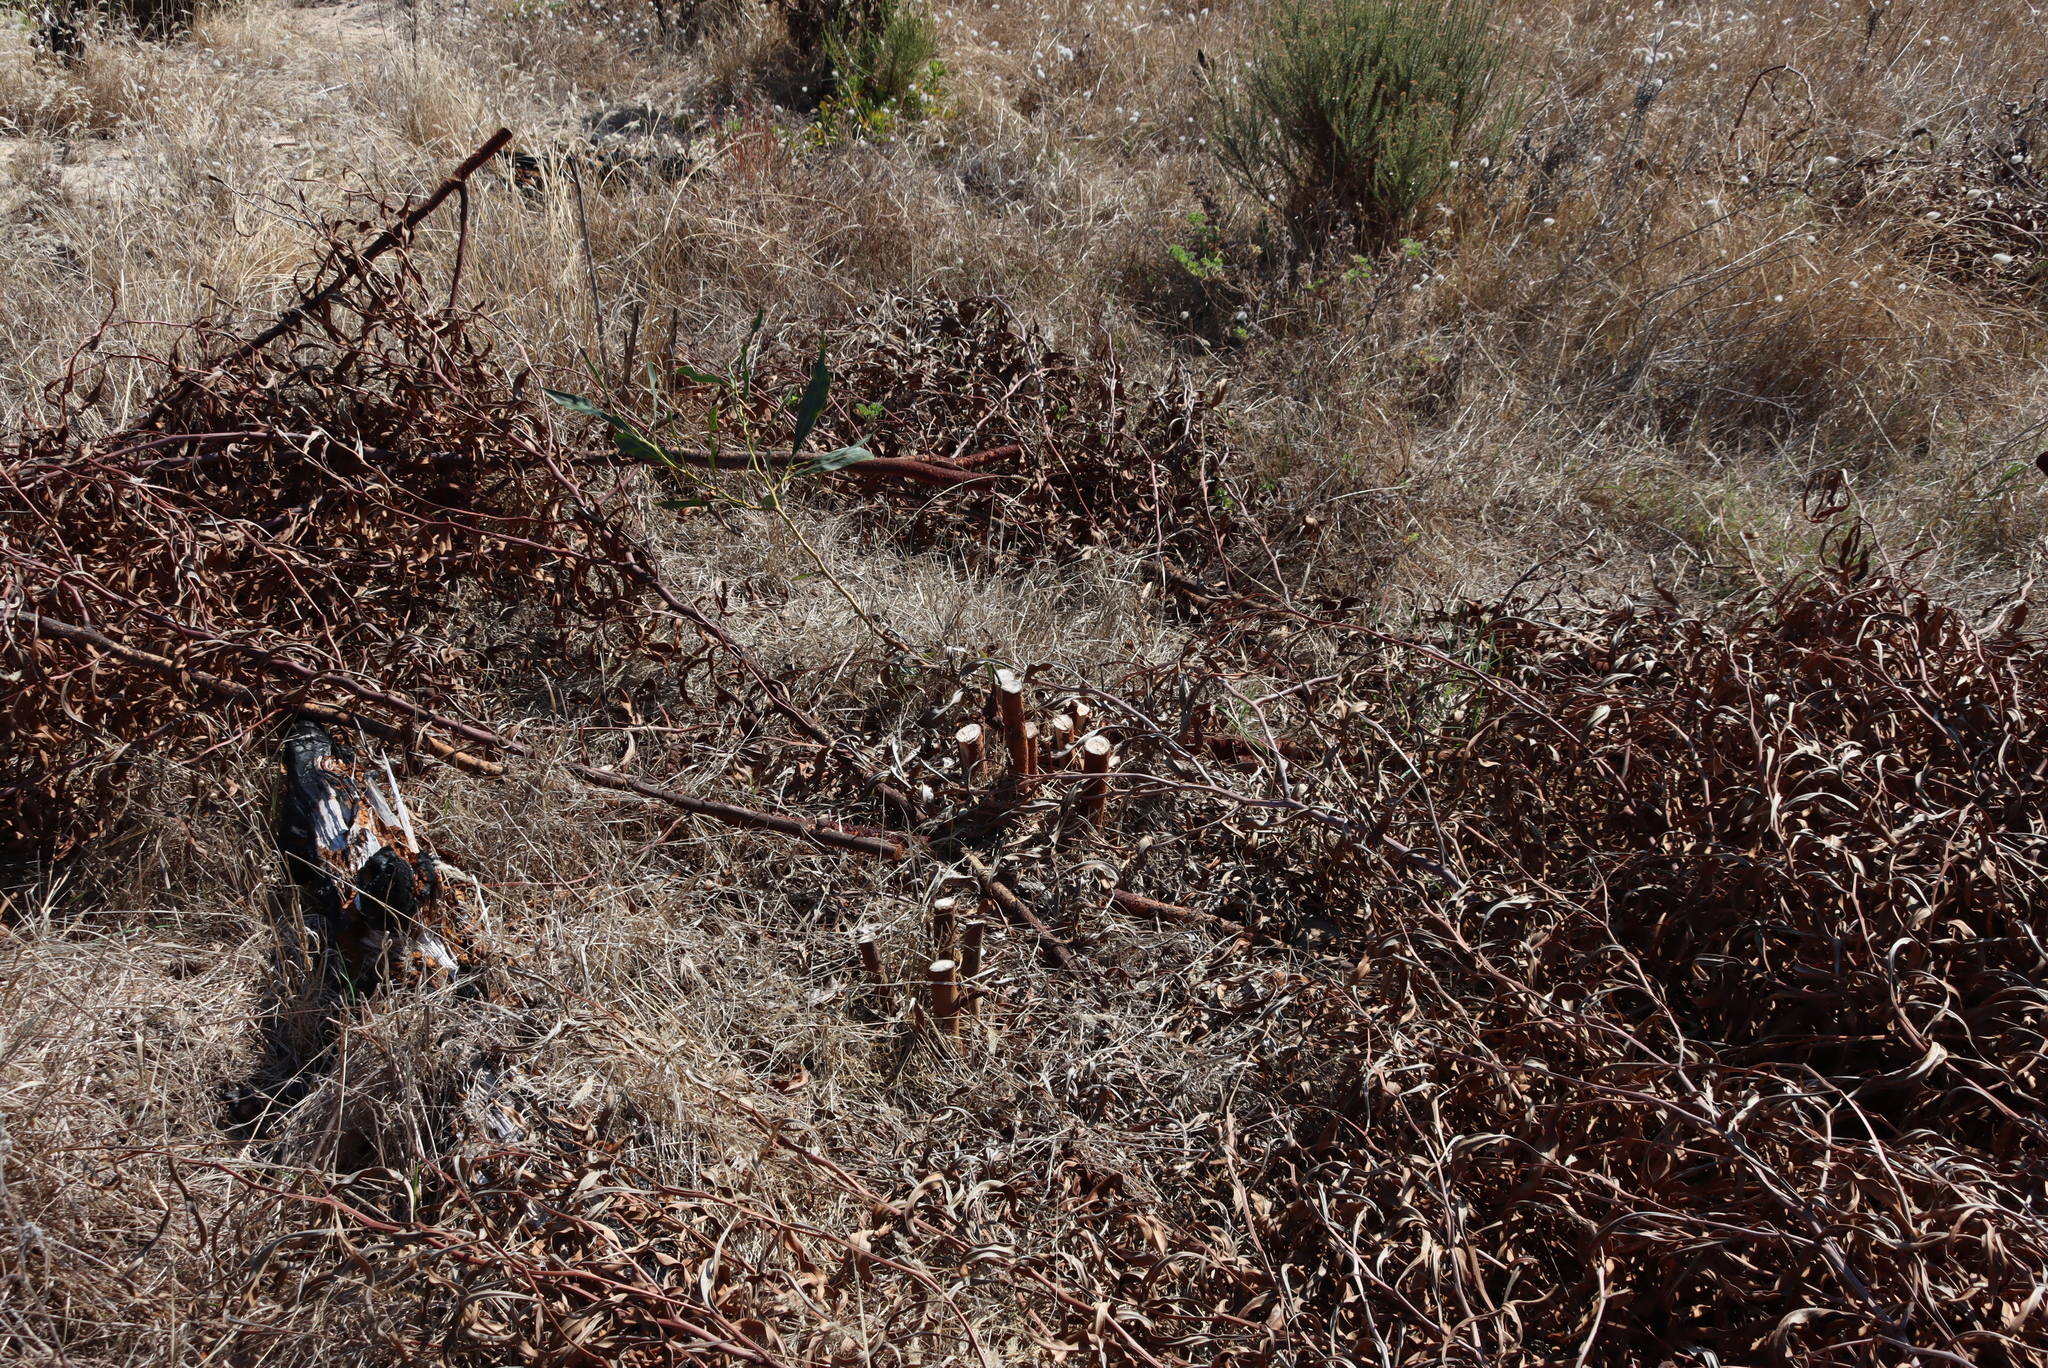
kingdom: Plantae
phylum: Tracheophyta
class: Magnoliopsida
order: Fabales
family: Fabaceae
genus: Acacia
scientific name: Acacia saligna
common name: Orange wattle
